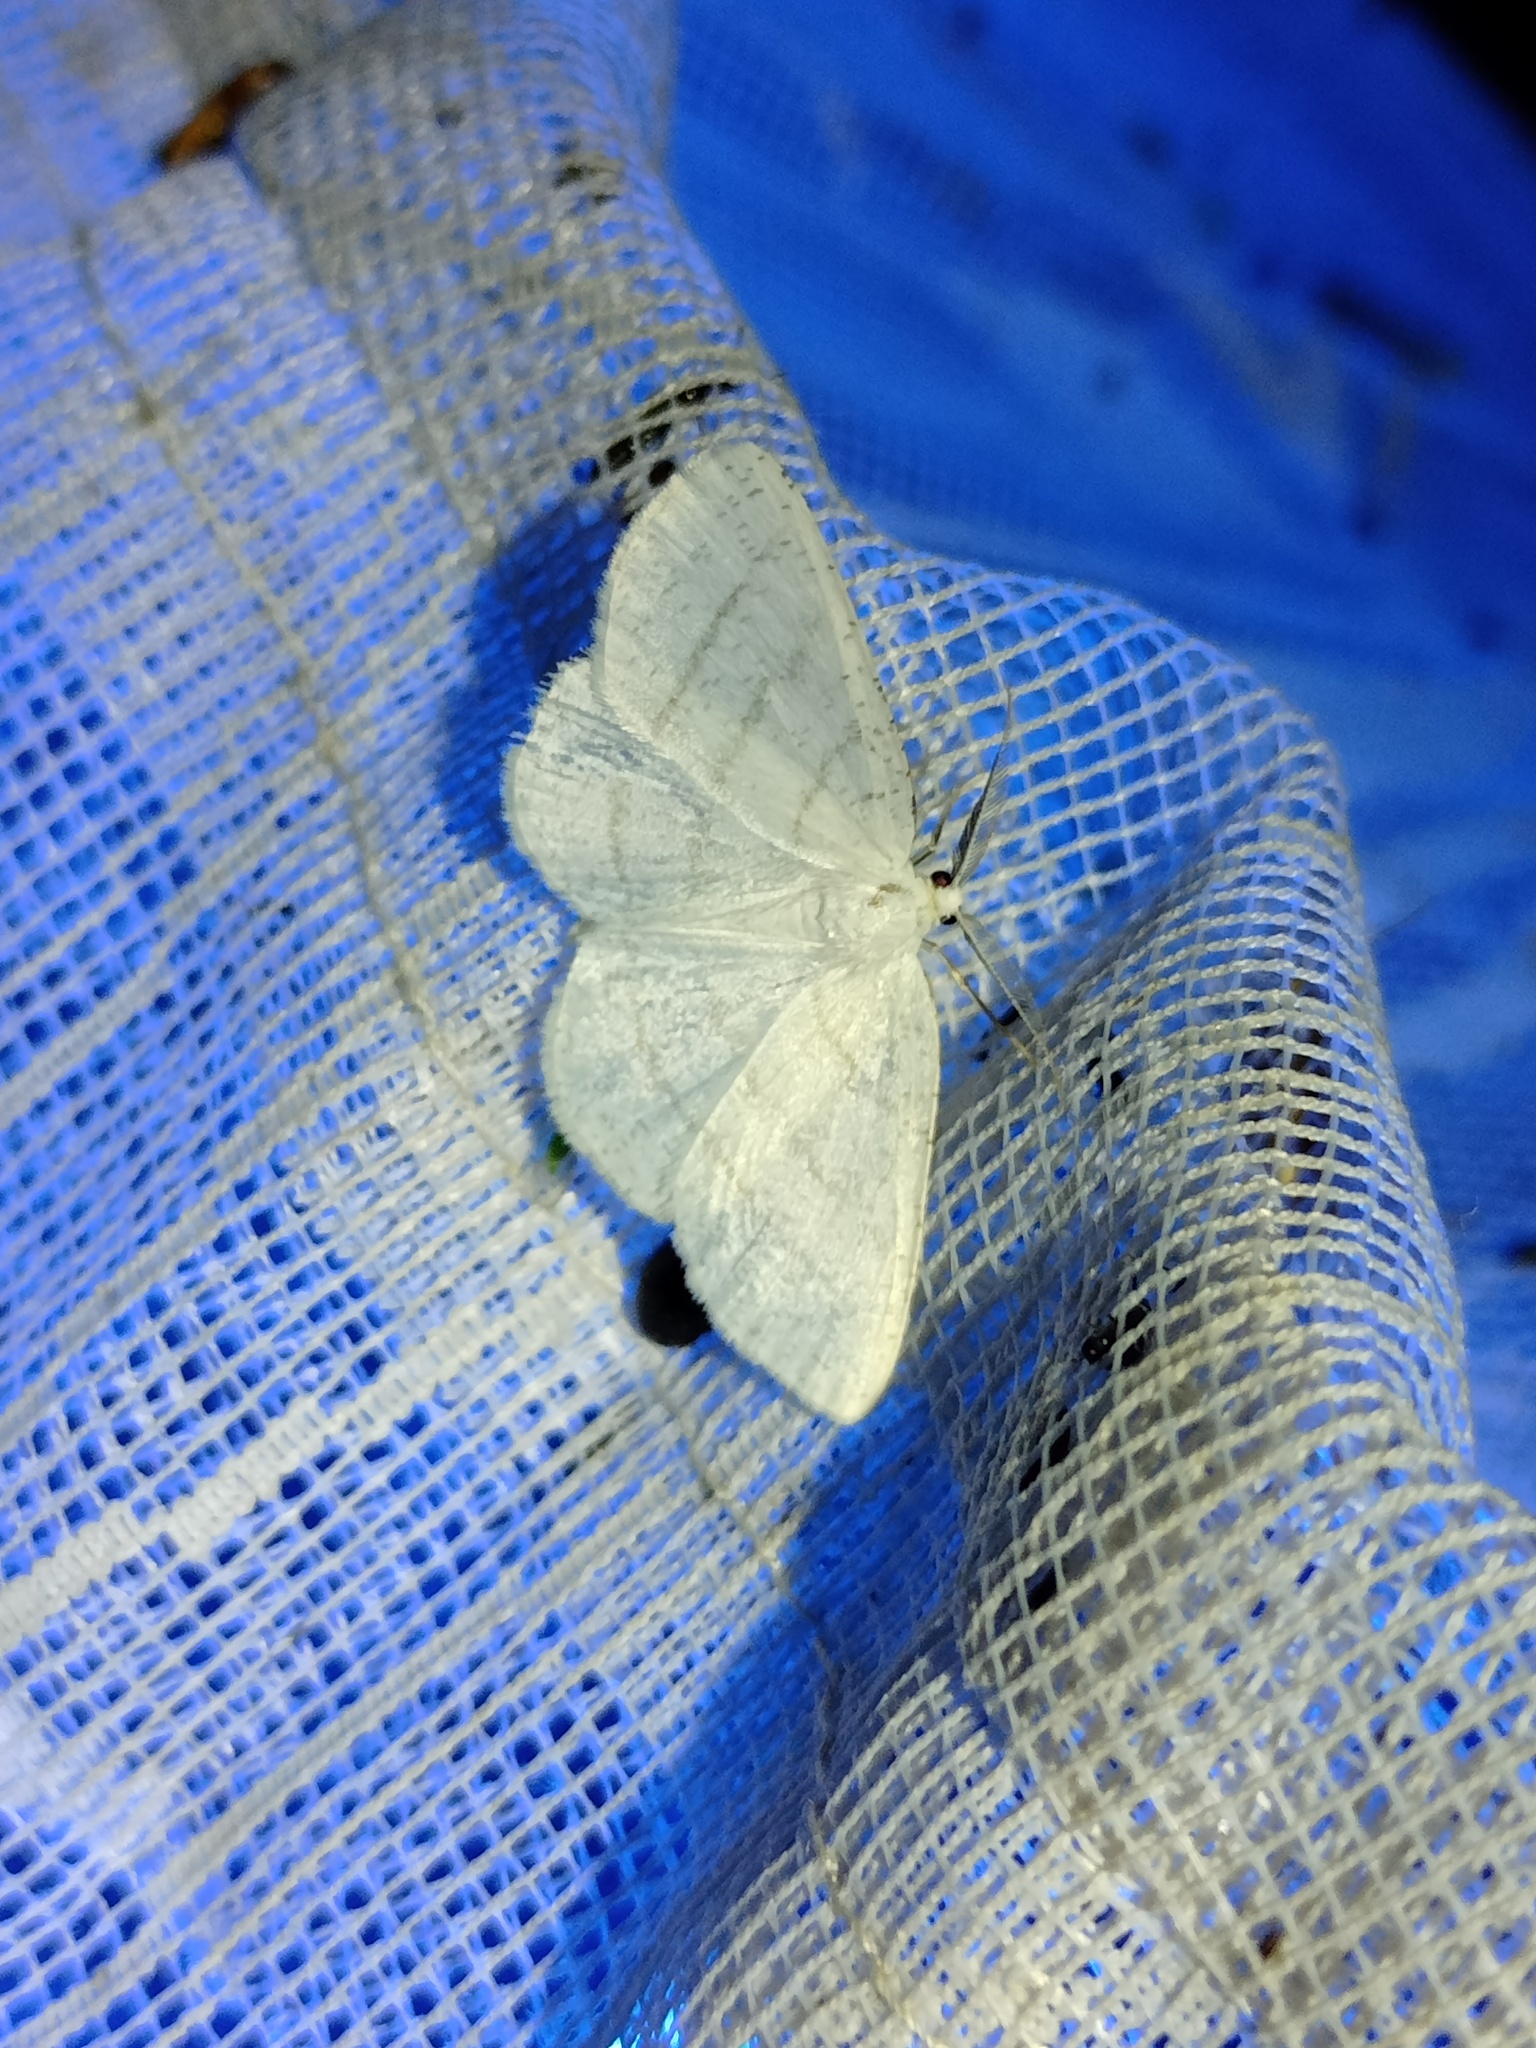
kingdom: Animalia
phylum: Arthropoda
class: Insecta
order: Lepidoptera
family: Geometridae
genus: Cabera
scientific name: Cabera pusaria
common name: Common white wave
